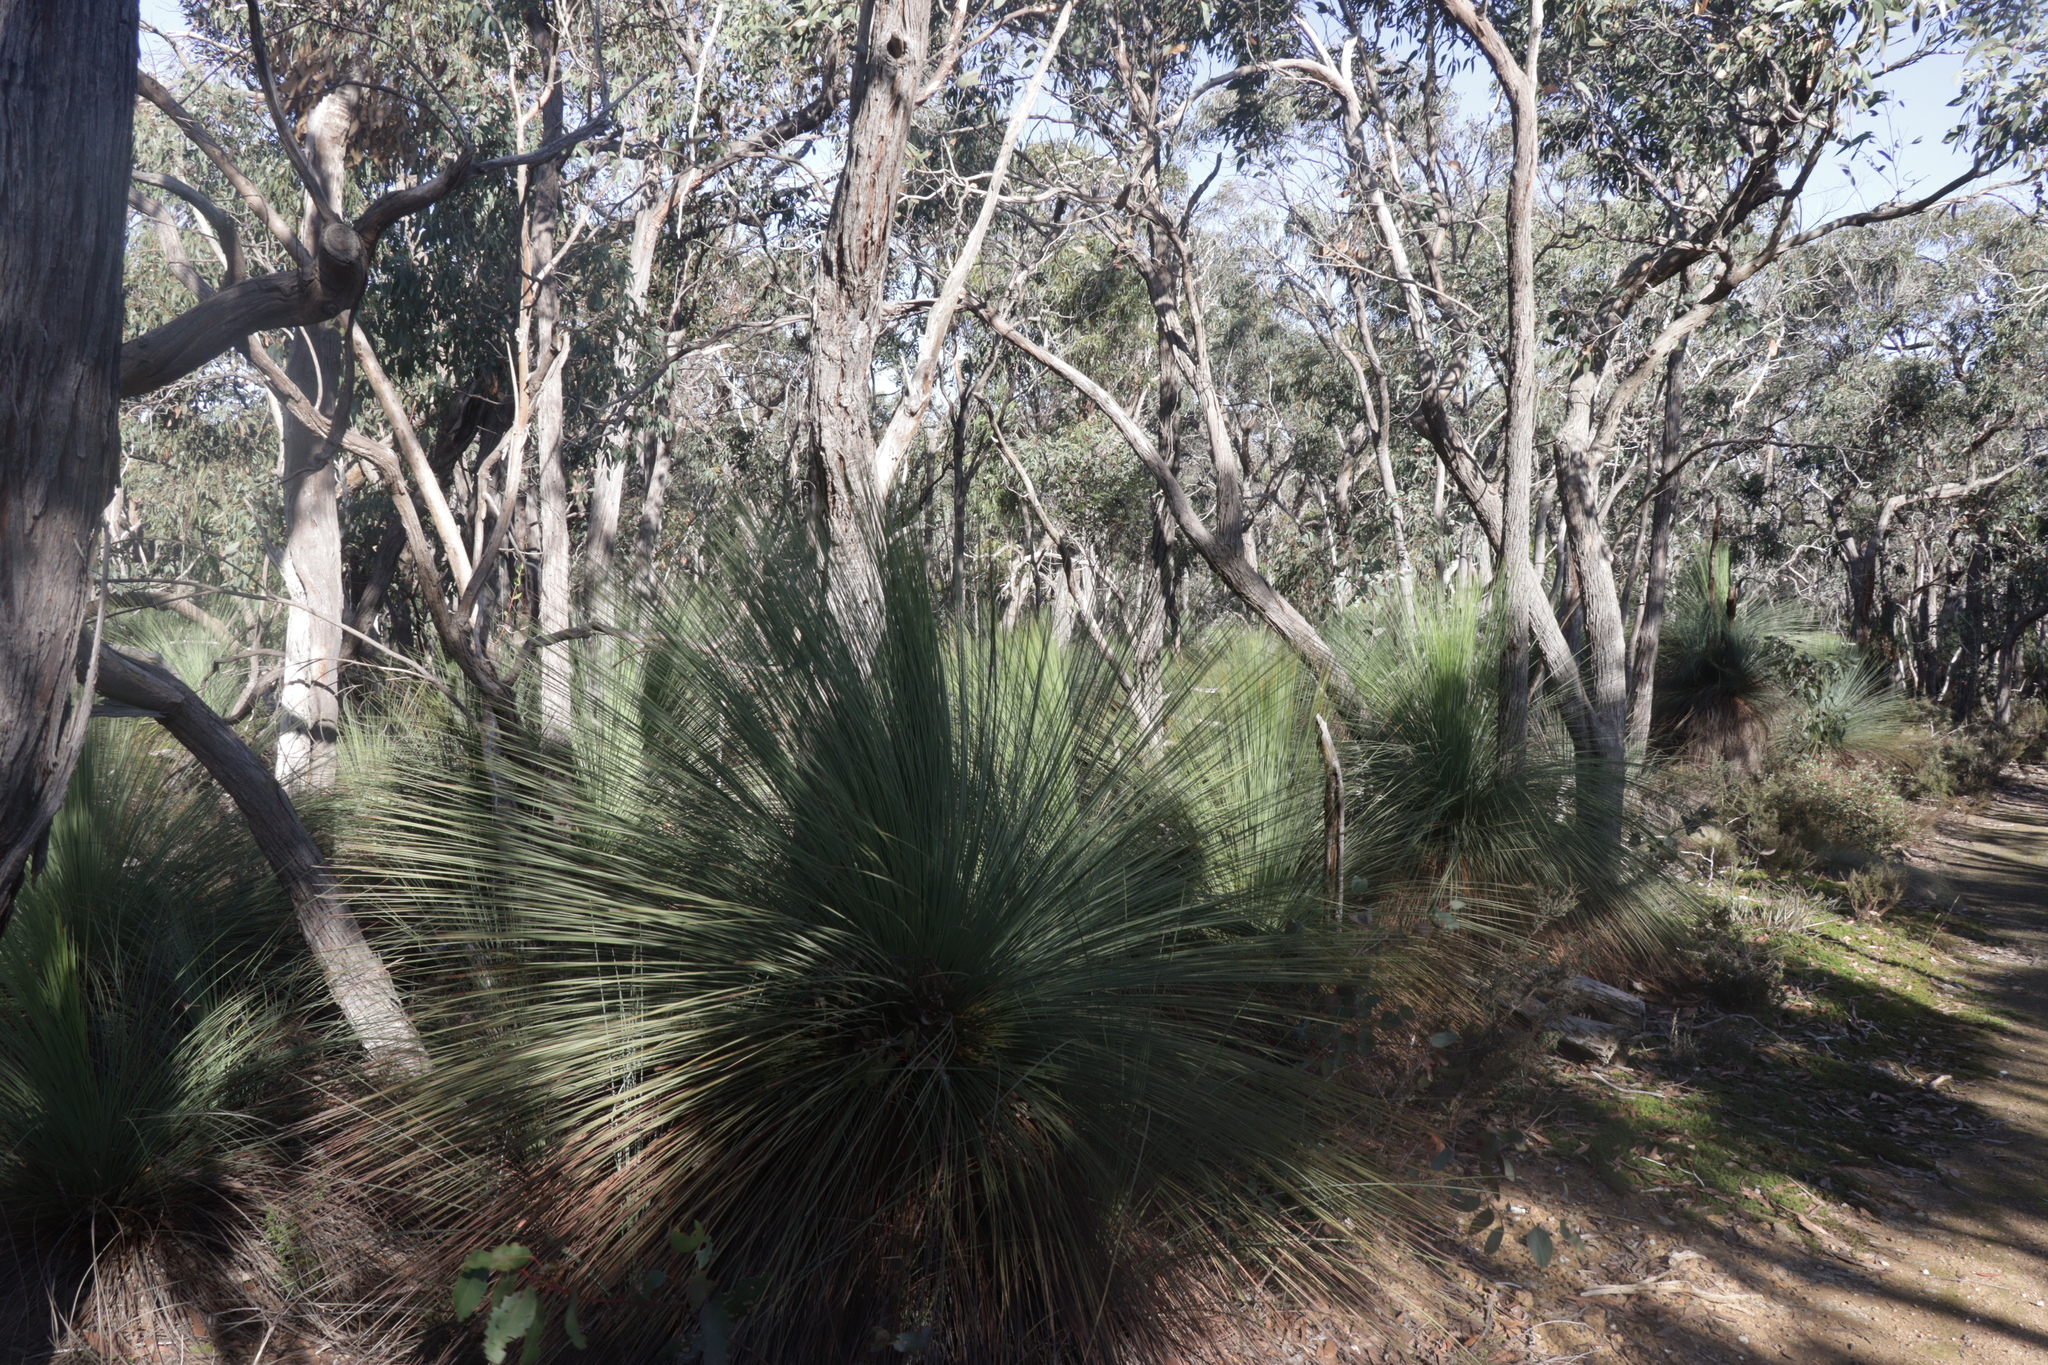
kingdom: Plantae
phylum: Tracheophyta
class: Liliopsida
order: Asparagales
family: Asphodelaceae
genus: Xanthorrhoea
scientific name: Xanthorrhoea australis
